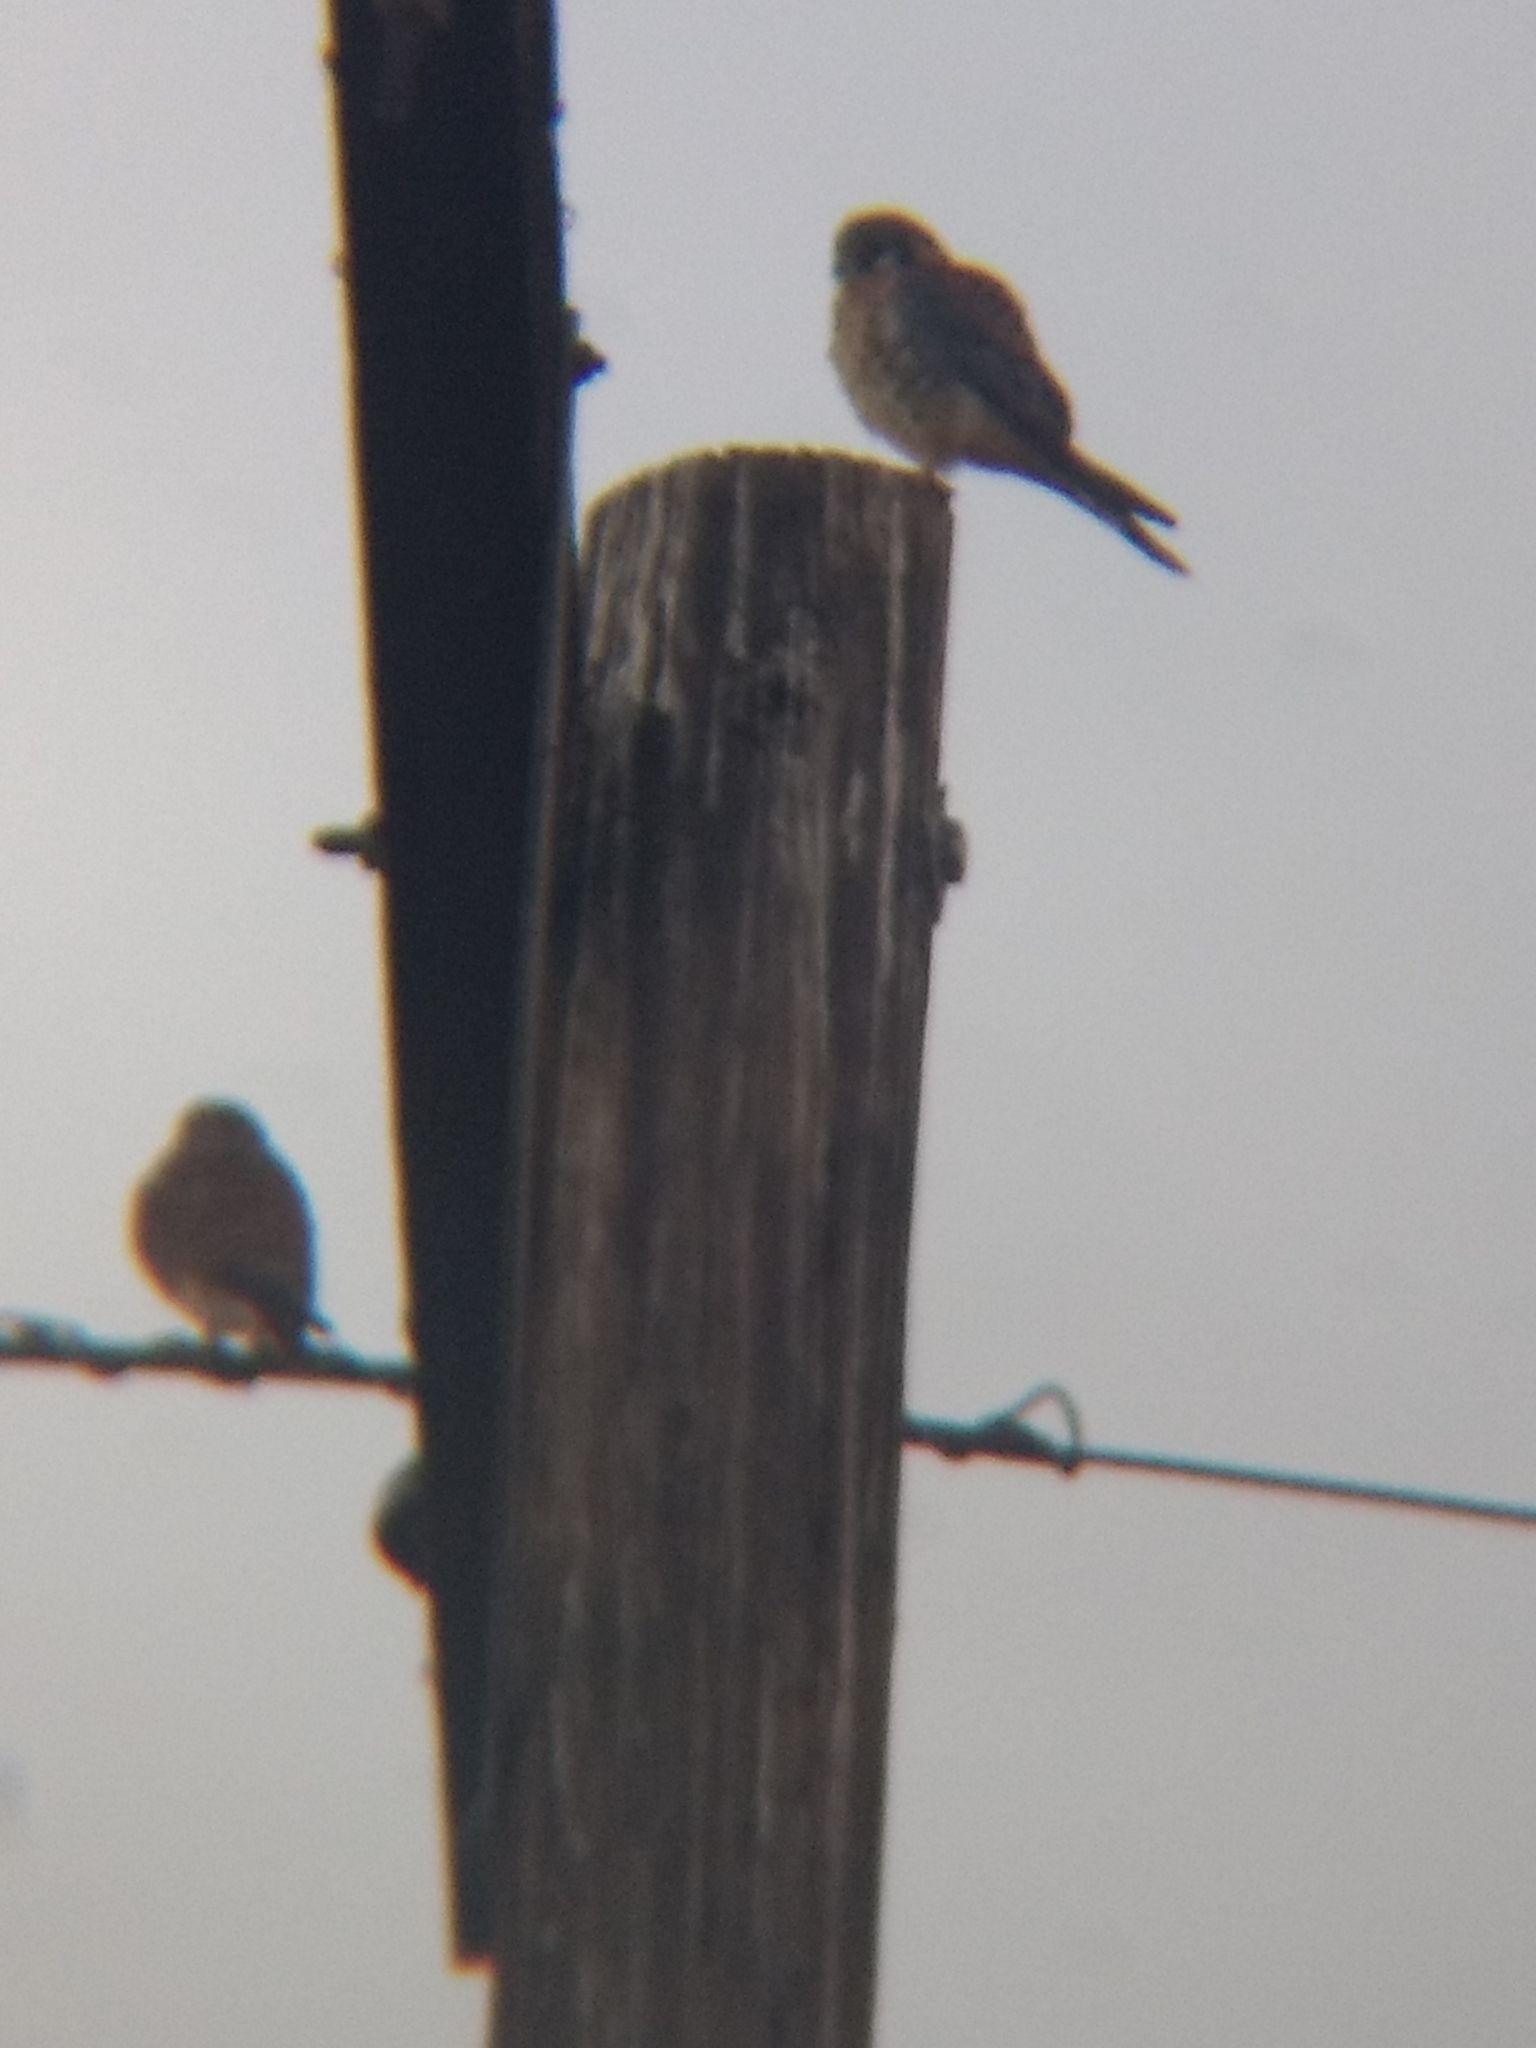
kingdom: Animalia
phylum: Chordata
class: Aves
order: Falconiformes
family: Falconidae
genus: Falco
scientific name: Falco sparverius
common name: American kestrel
